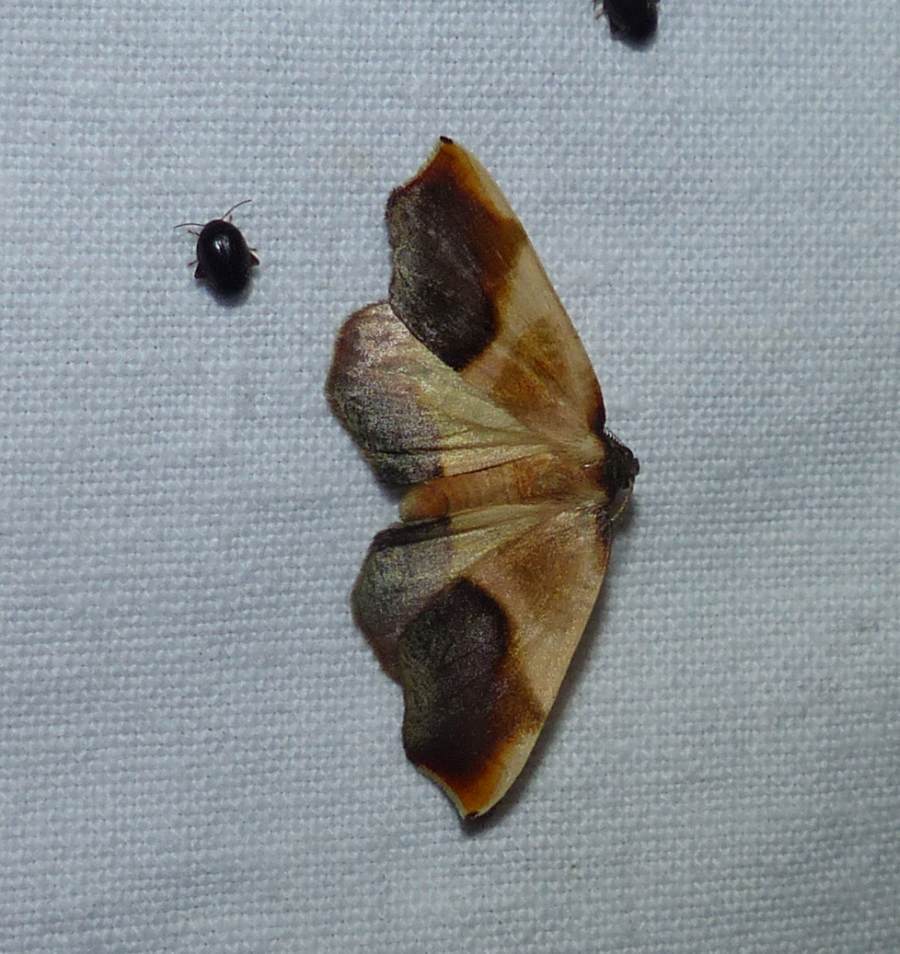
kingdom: Animalia
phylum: Arthropoda
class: Insecta
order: Lepidoptera
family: Geometridae
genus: Plagodis
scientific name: Plagodis kuetzingi
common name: Purple plagodis
